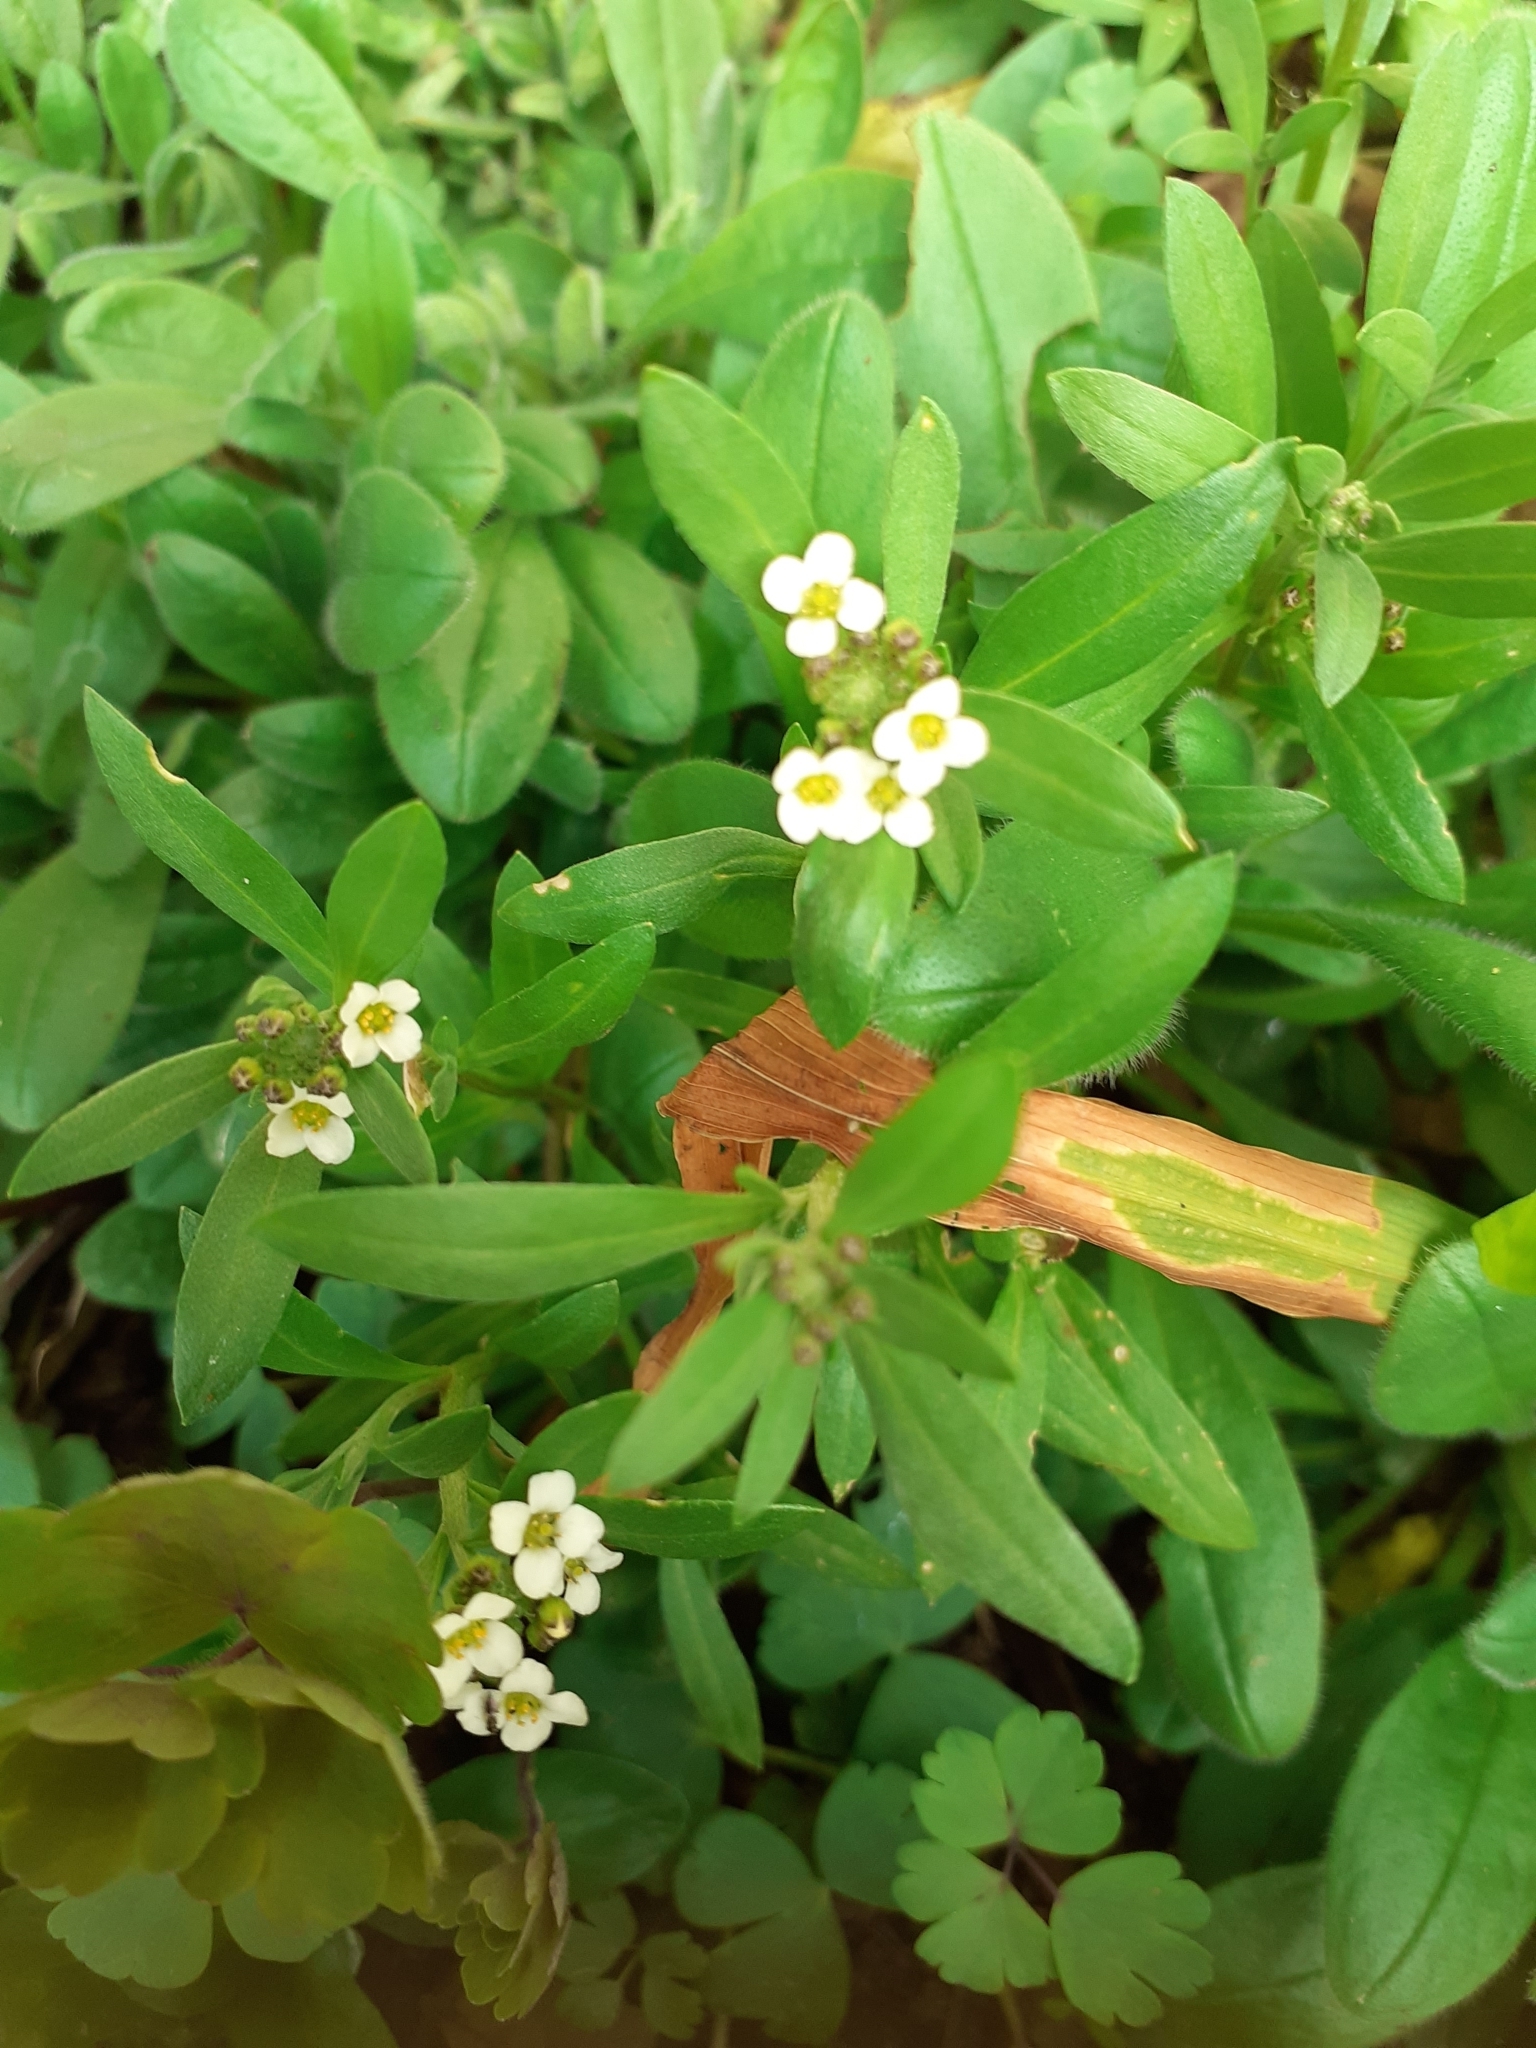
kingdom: Plantae
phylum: Tracheophyta
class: Magnoliopsida
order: Brassicales
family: Brassicaceae
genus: Lobularia
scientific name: Lobularia maritima
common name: Sweet alison
